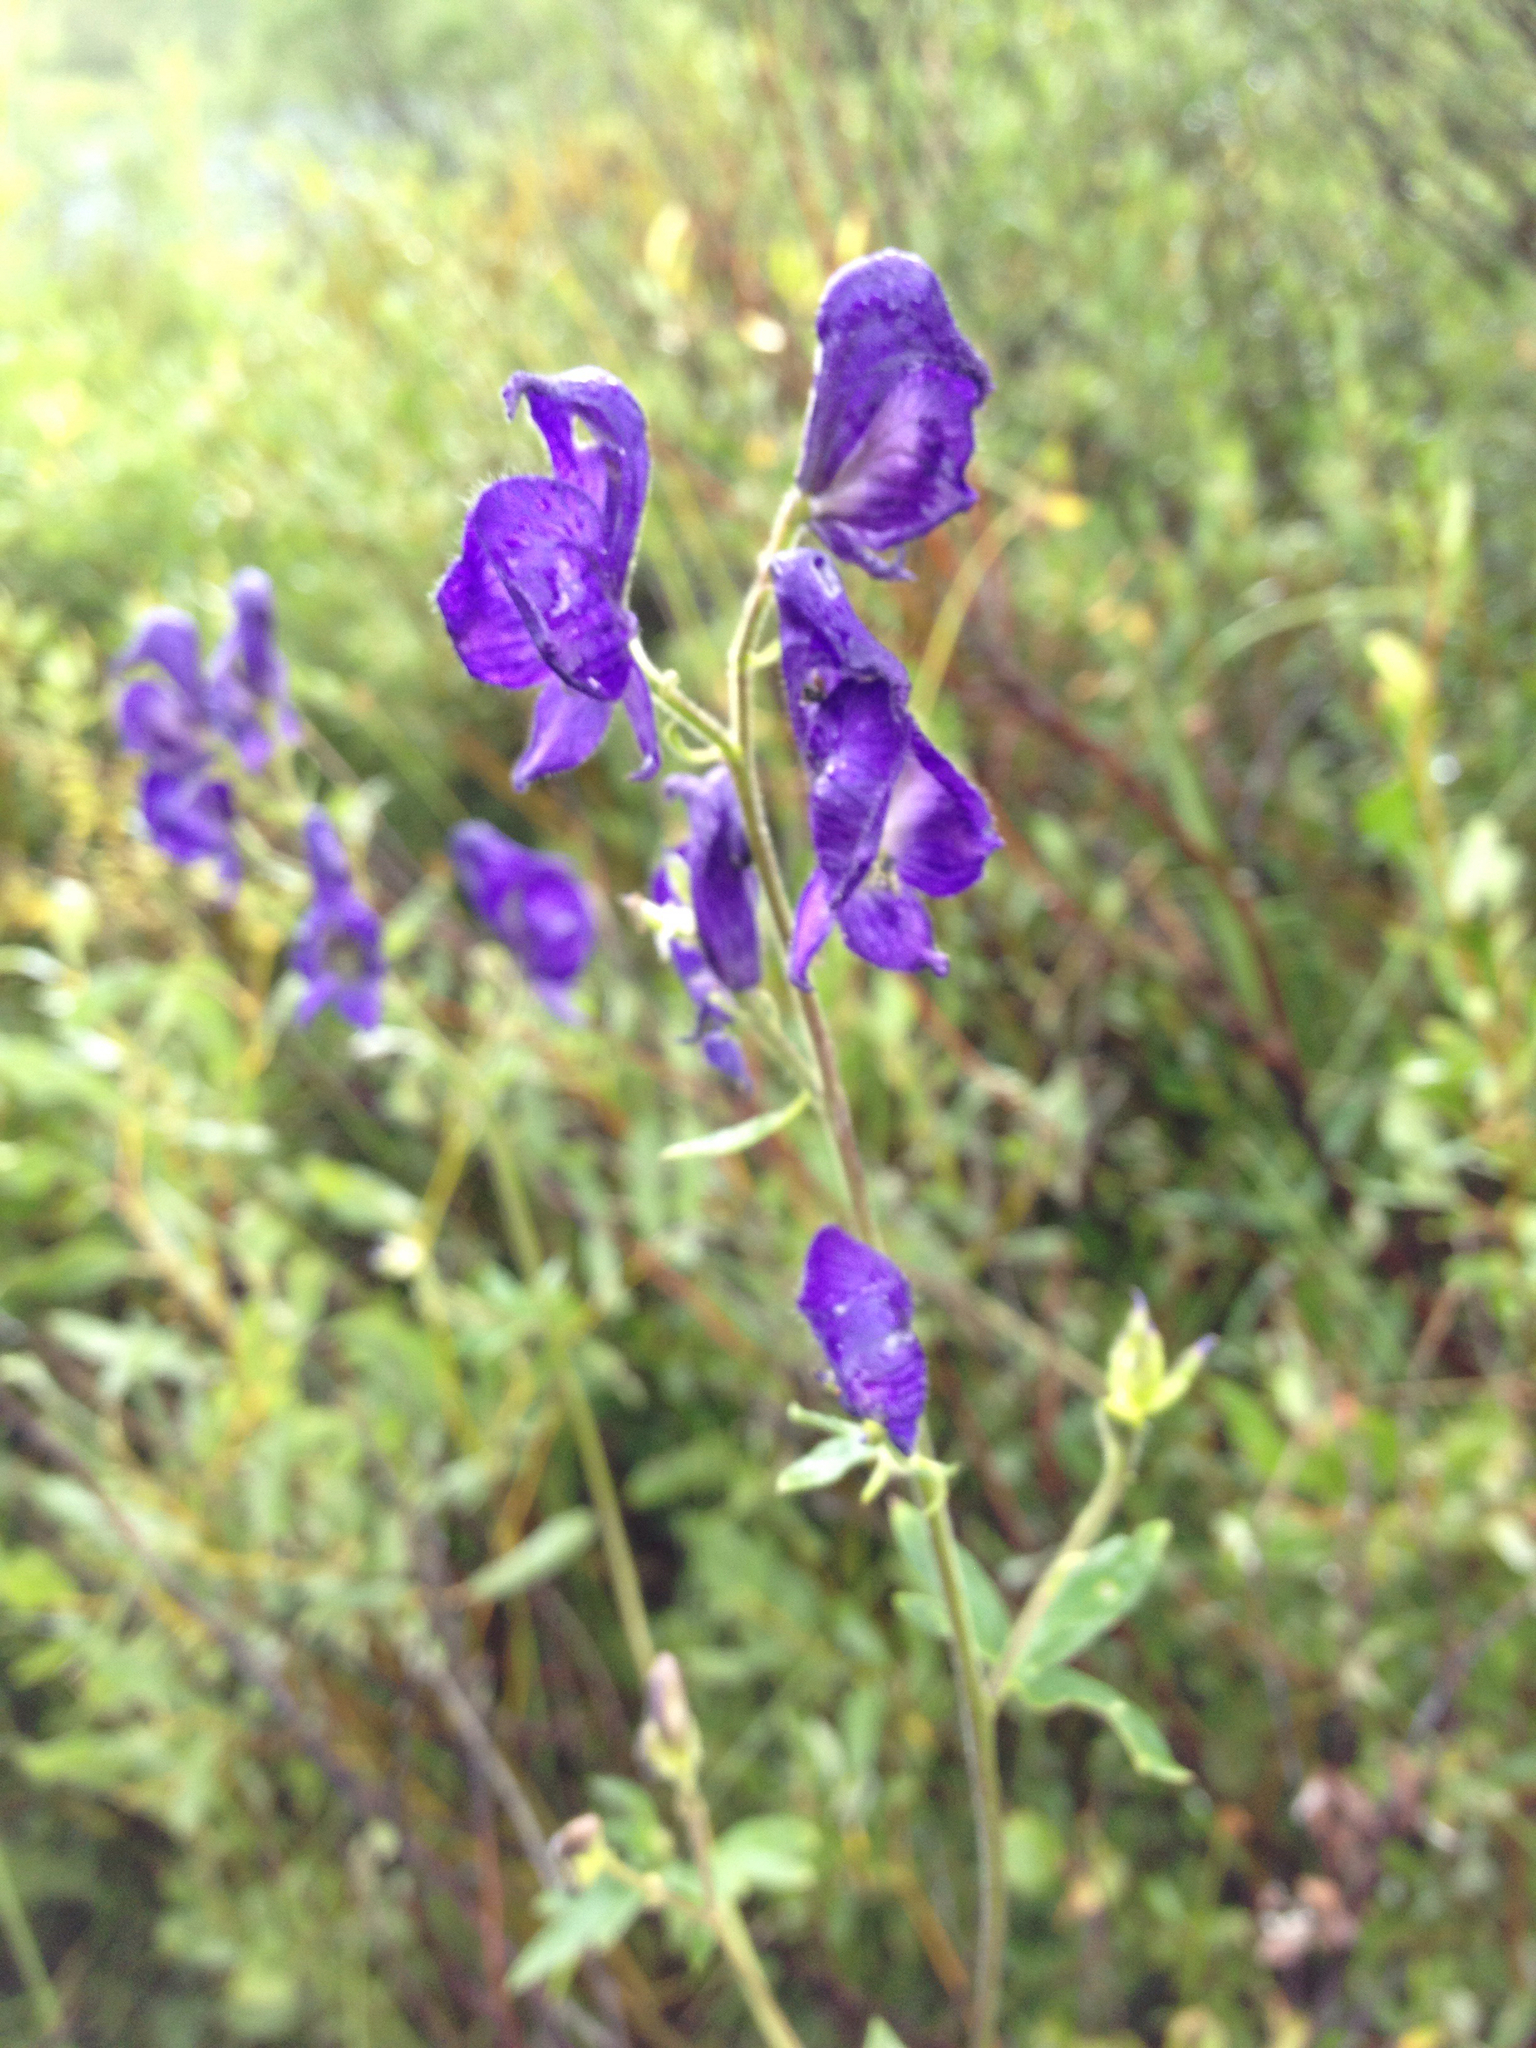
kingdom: Plantae
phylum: Tracheophyta
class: Magnoliopsida
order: Ranunculales
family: Ranunculaceae
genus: Aconitum
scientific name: Aconitum columbianum
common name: Columbia aconite
